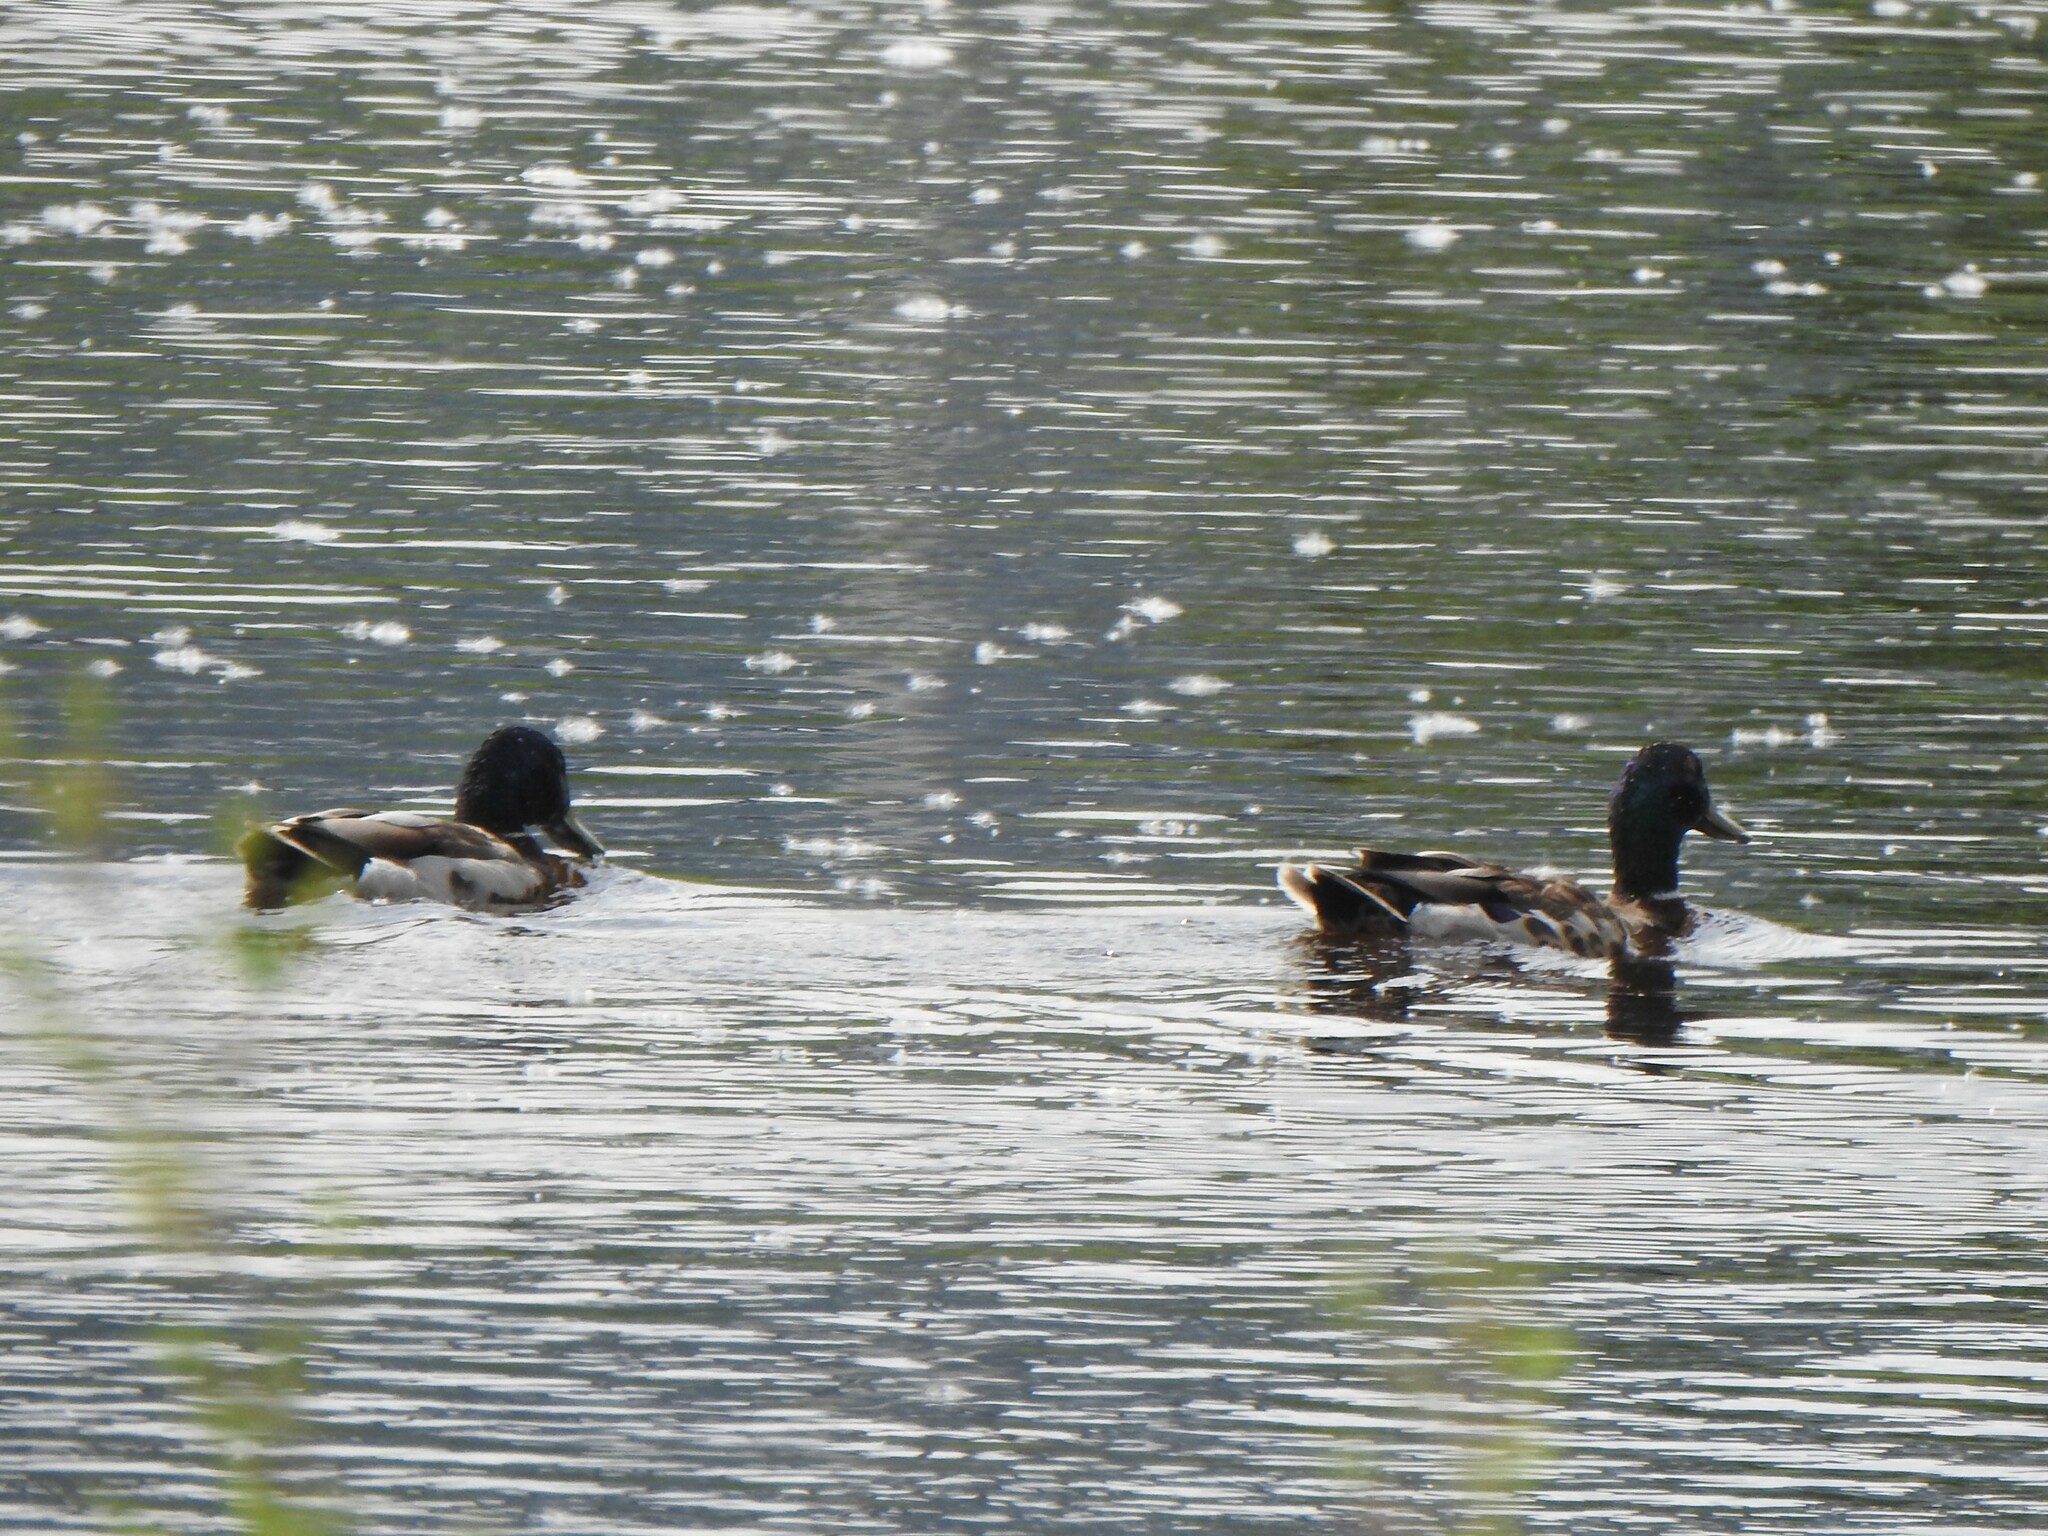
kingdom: Animalia
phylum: Chordata
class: Aves
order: Anseriformes
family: Anatidae
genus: Anas
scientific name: Anas platyrhynchos
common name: Mallard
